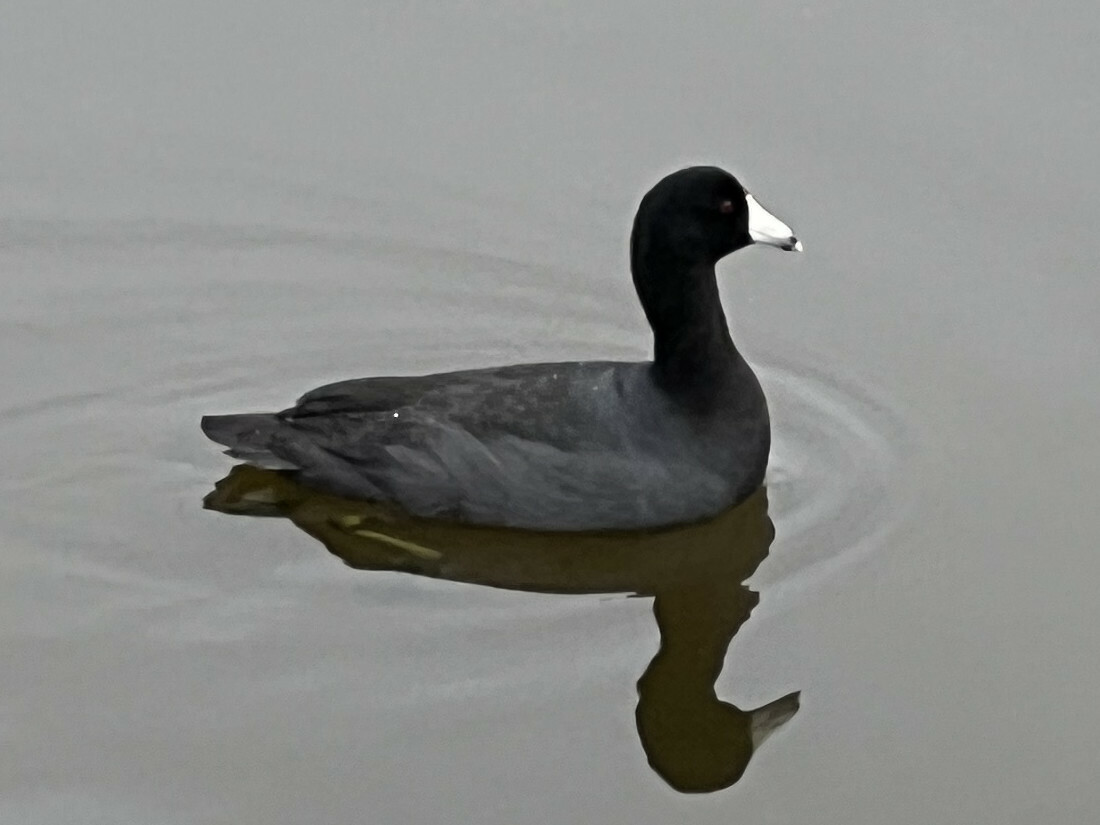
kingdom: Animalia
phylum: Chordata
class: Aves
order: Gruiformes
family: Rallidae
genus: Fulica
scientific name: Fulica americana
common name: American coot
